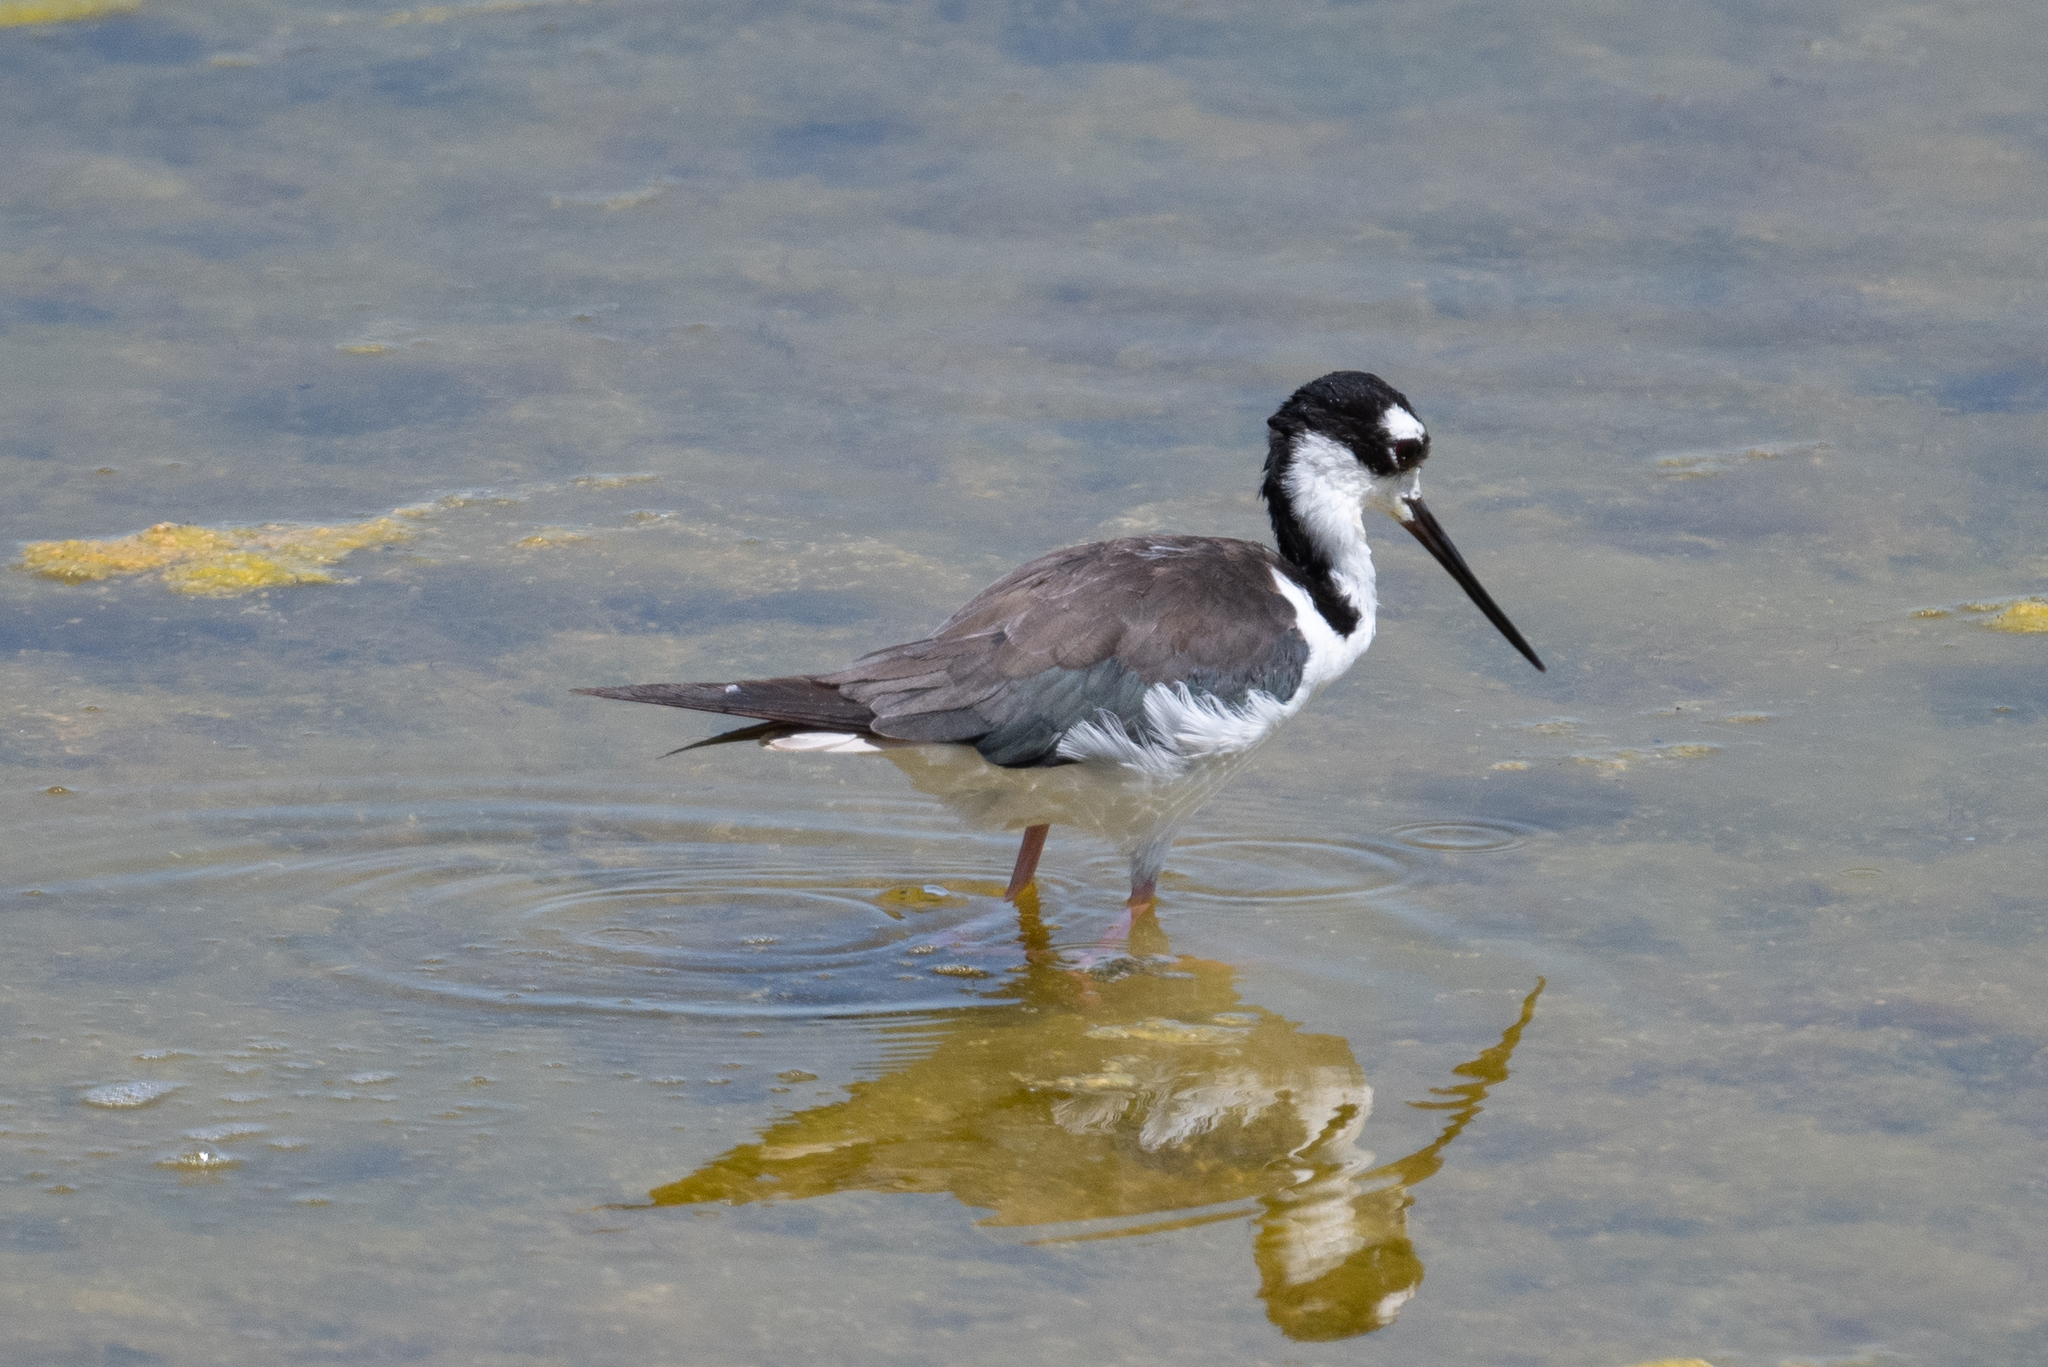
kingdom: Animalia
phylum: Chordata
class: Aves
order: Charadriiformes
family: Recurvirostridae
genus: Himantopus
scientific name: Himantopus mexicanus
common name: Black-necked stilt
